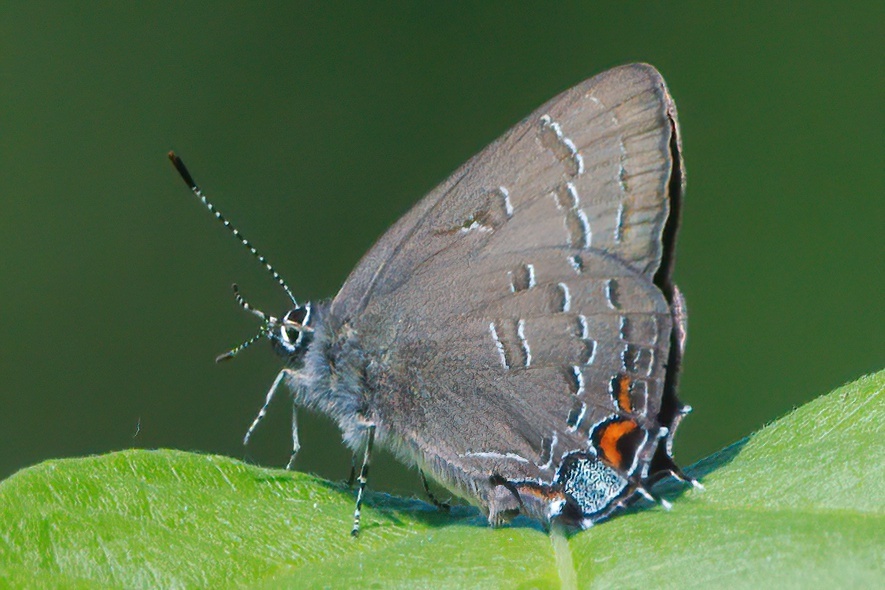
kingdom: Animalia
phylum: Arthropoda
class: Insecta
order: Lepidoptera
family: Lycaenidae
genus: Satyrium
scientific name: Satyrium calanus
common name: Banded hairstreak
